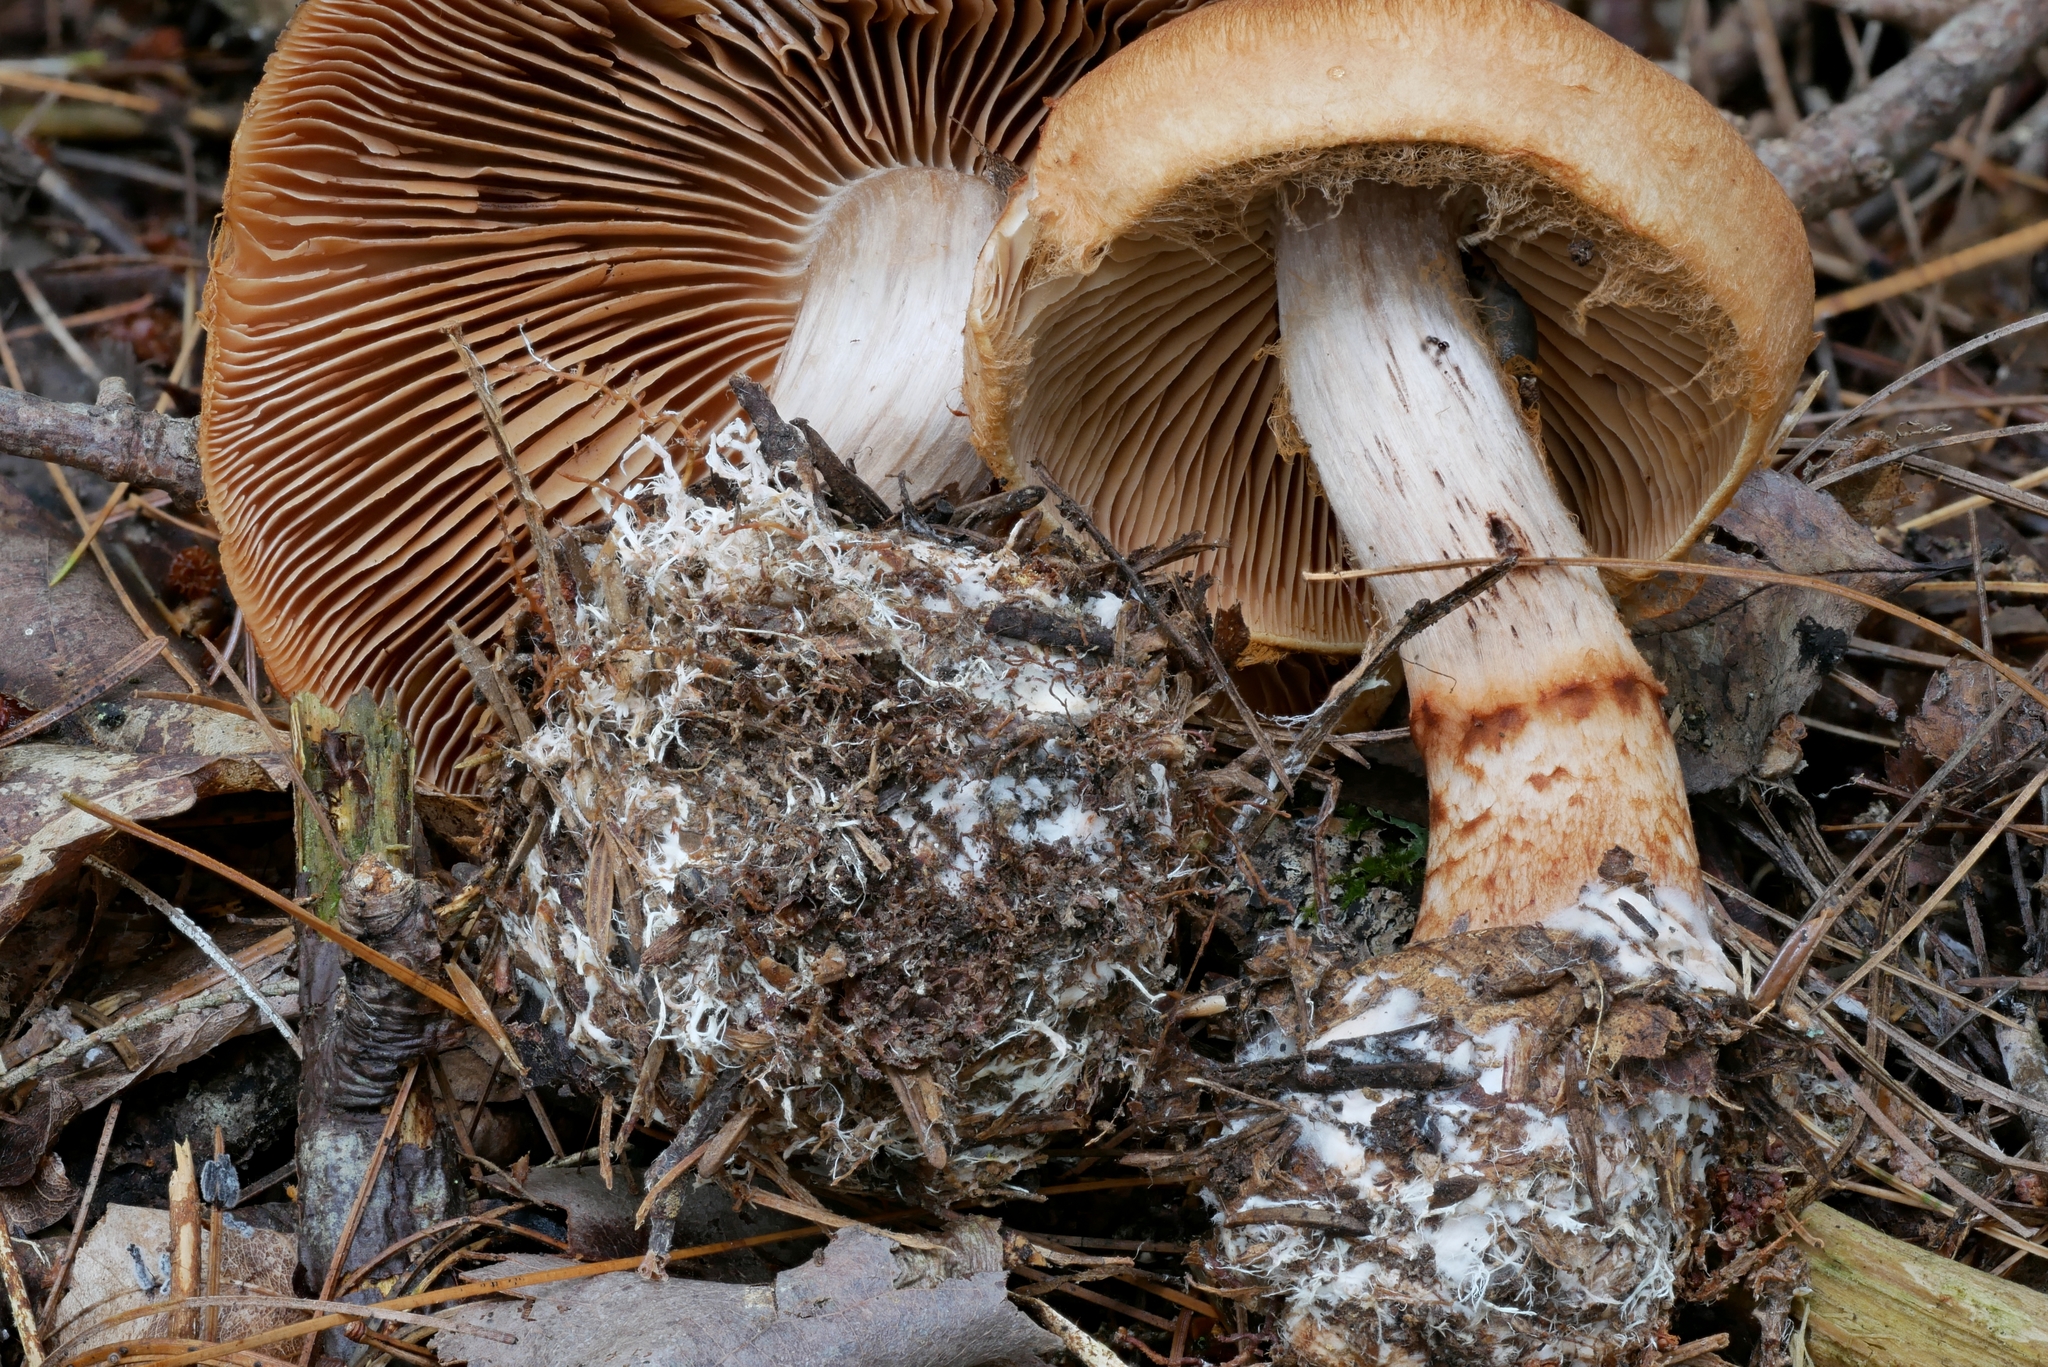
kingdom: Fungi
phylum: Basidiomycota
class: Agaricomycetes
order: Agaricales
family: Cortinariaceae
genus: Cortinarius
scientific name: Cortinarius armillatus
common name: Red banded webcap
